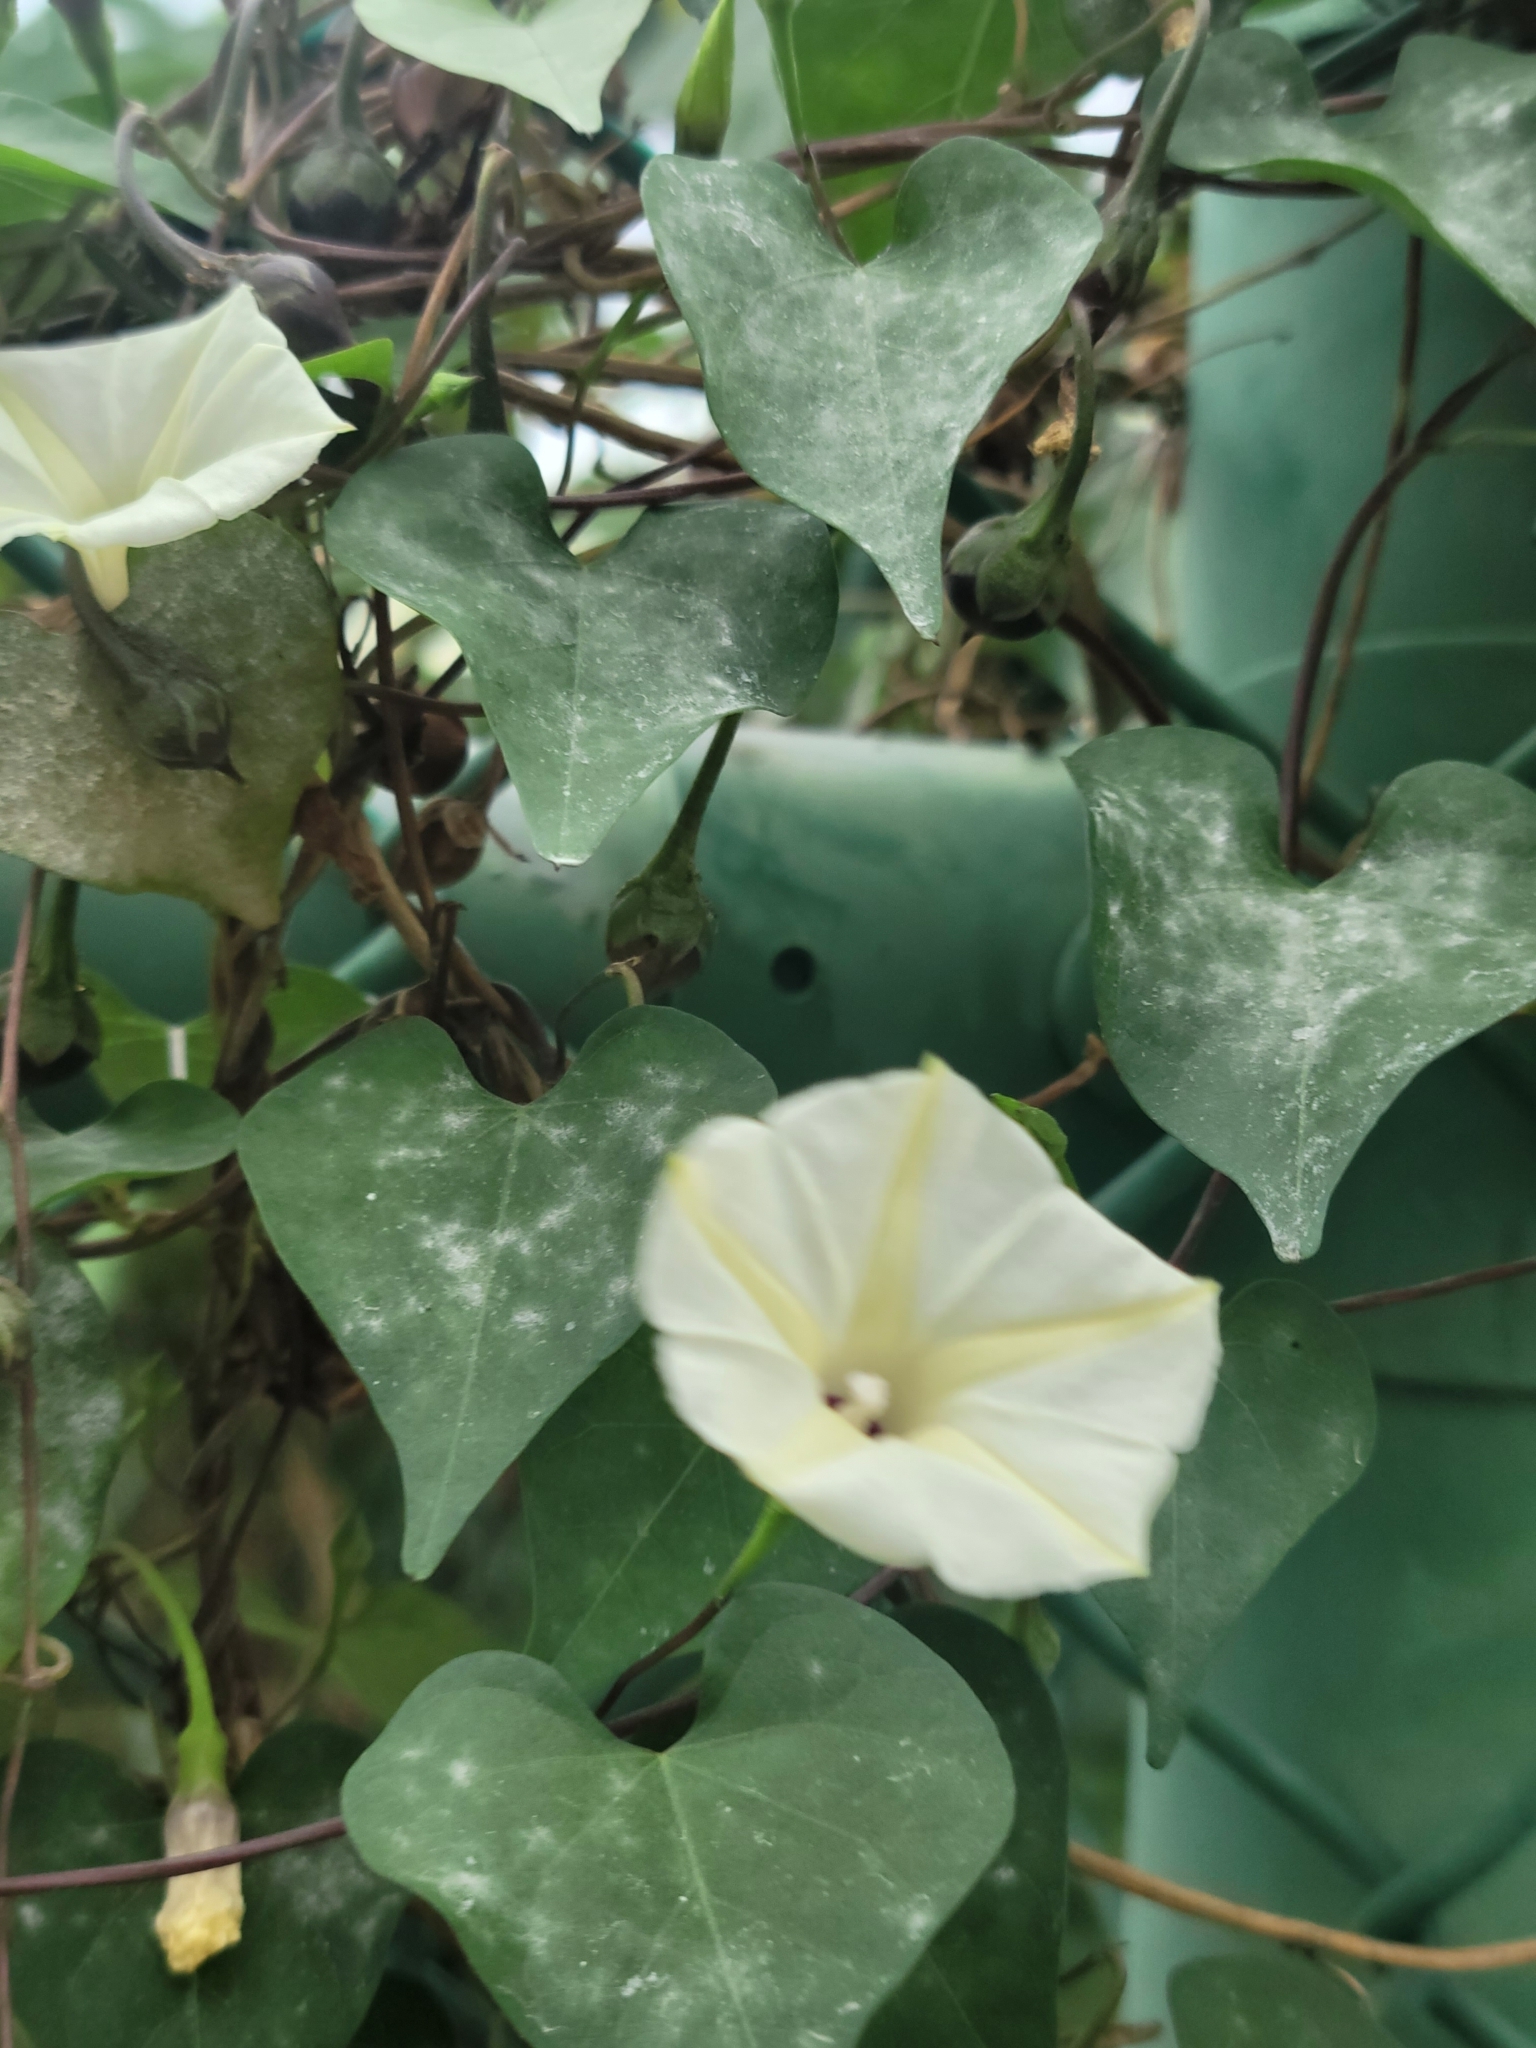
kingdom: Plantae
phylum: Tracheophyta
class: Magnoliopsida
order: Solanales
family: Convolvulaceae
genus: Ipomoea
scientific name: Ipomoea obscura
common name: Obscure morning-glory
